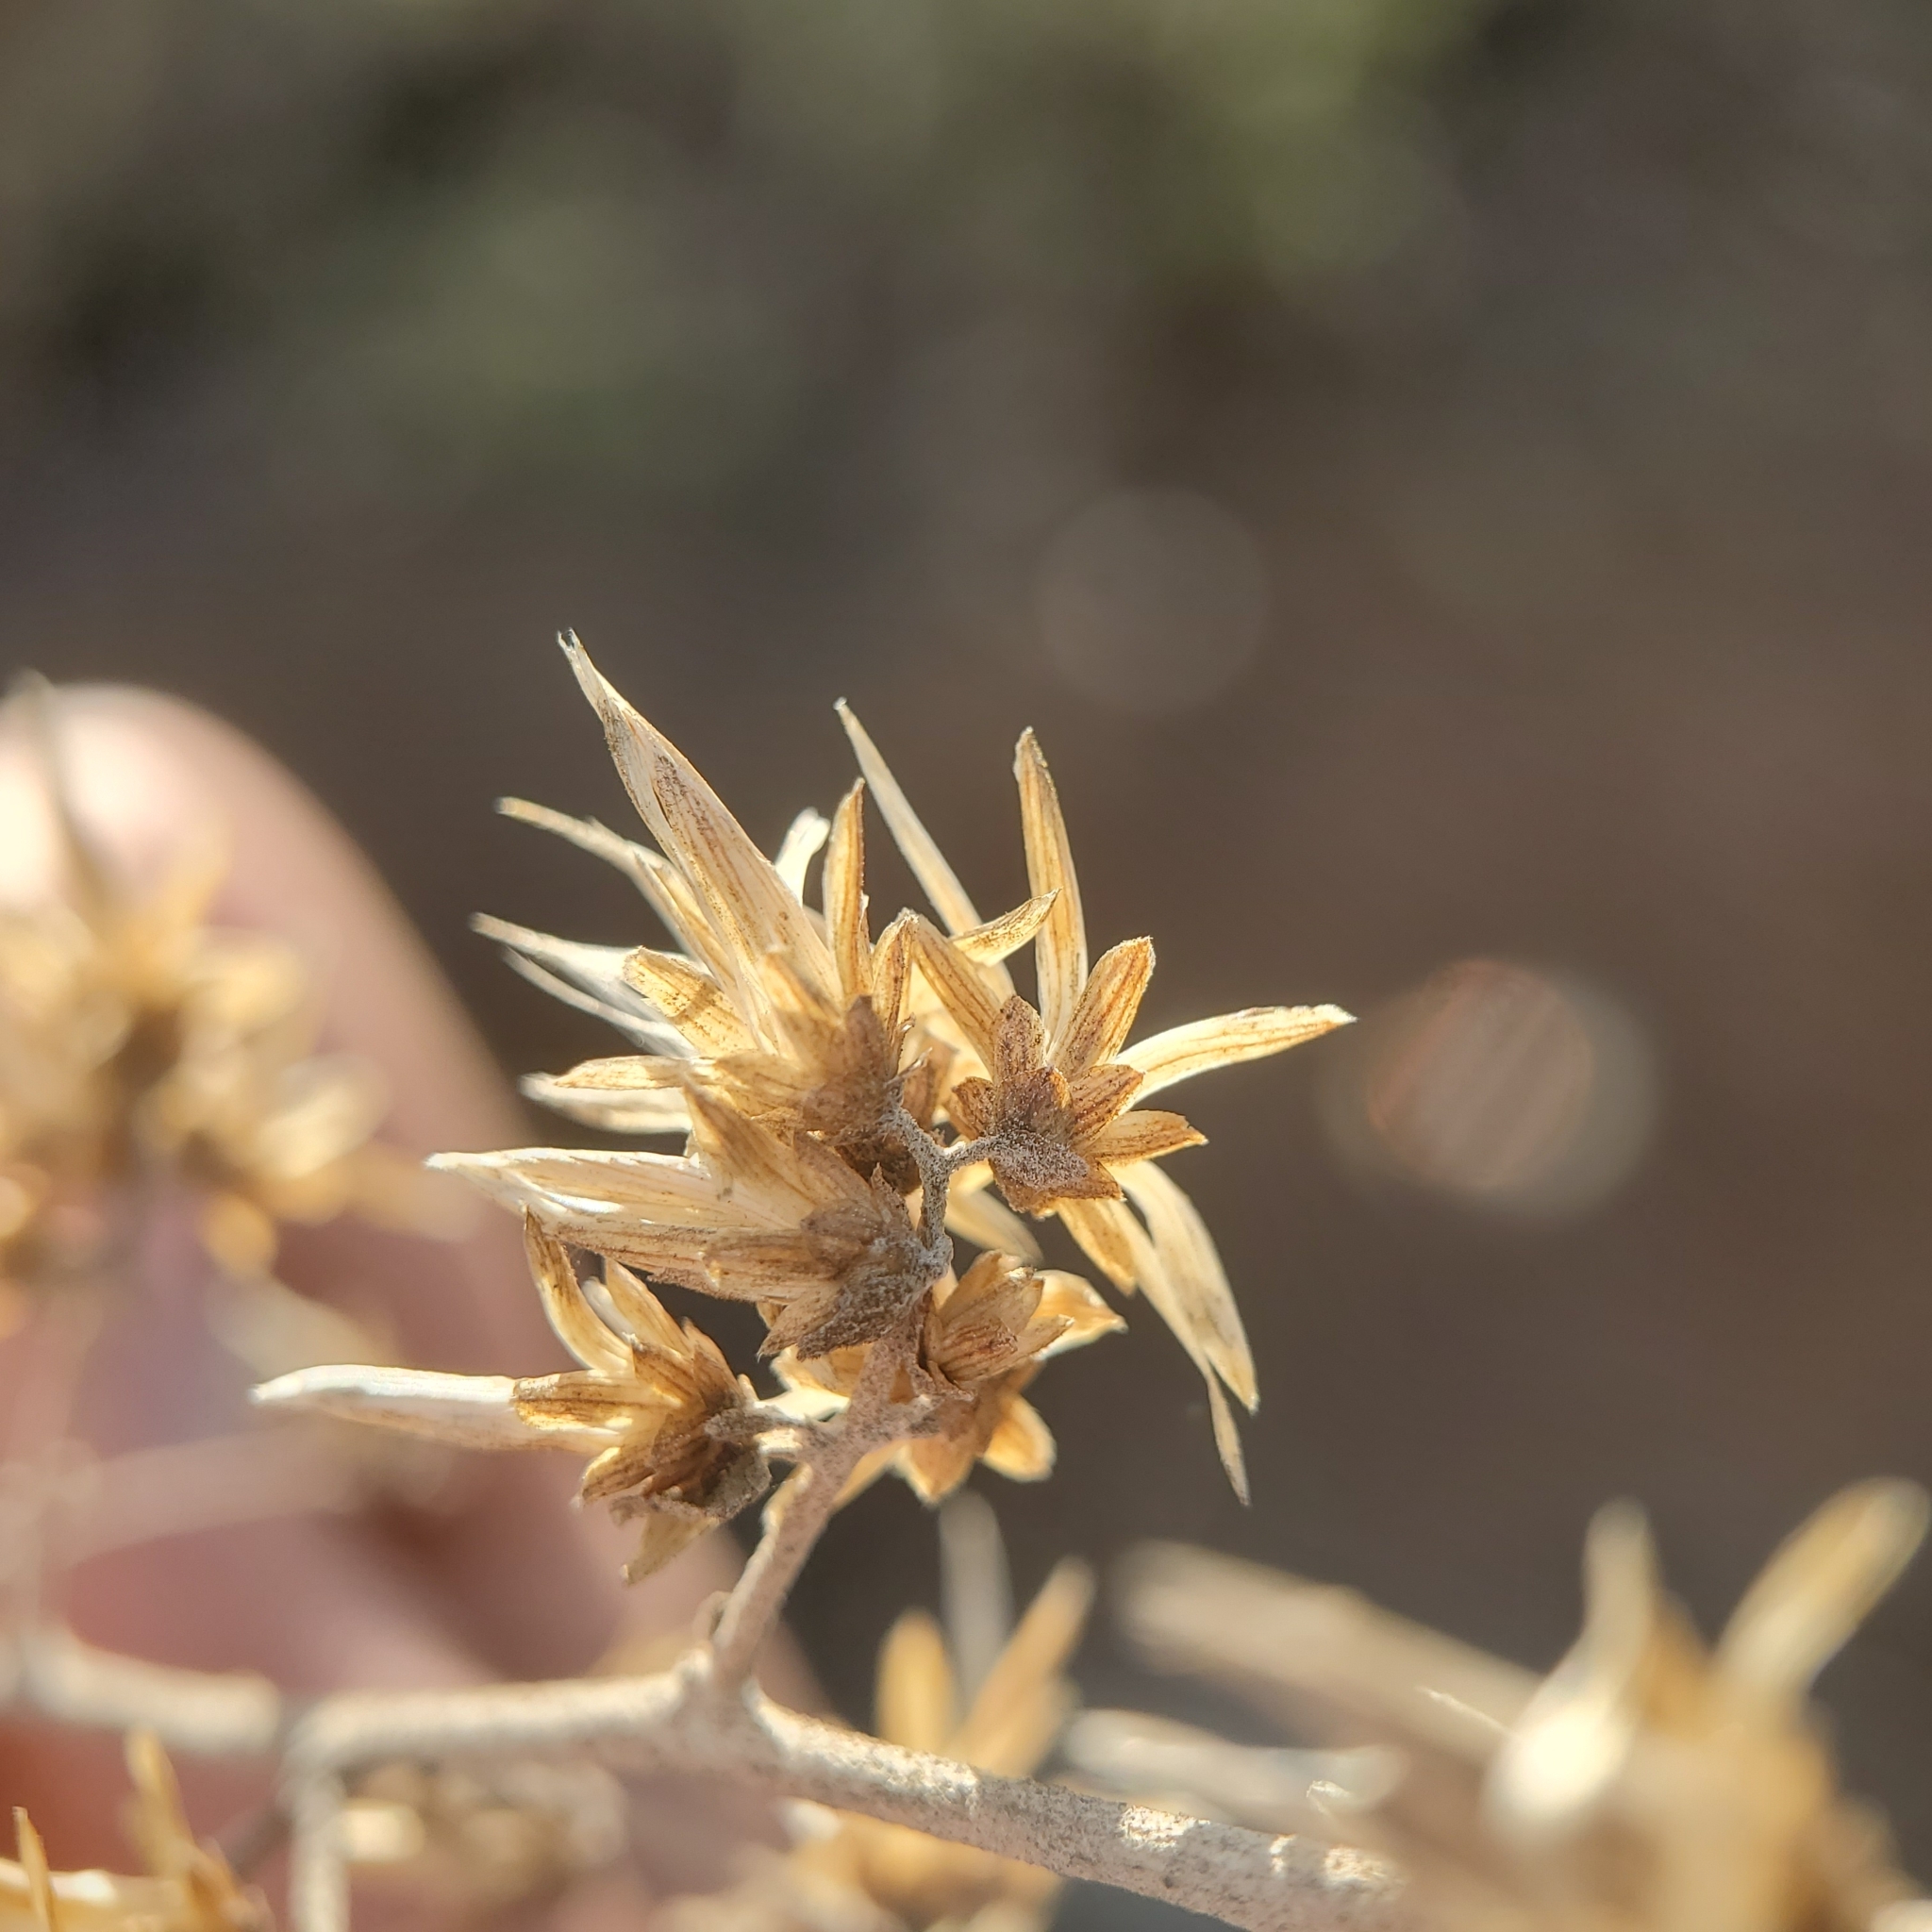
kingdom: Plantae
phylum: Tracheophyta
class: Magnoliopsida
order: Asterales
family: Asteraceae
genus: Brickellia
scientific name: Brickellia californica
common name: California brickellbush
